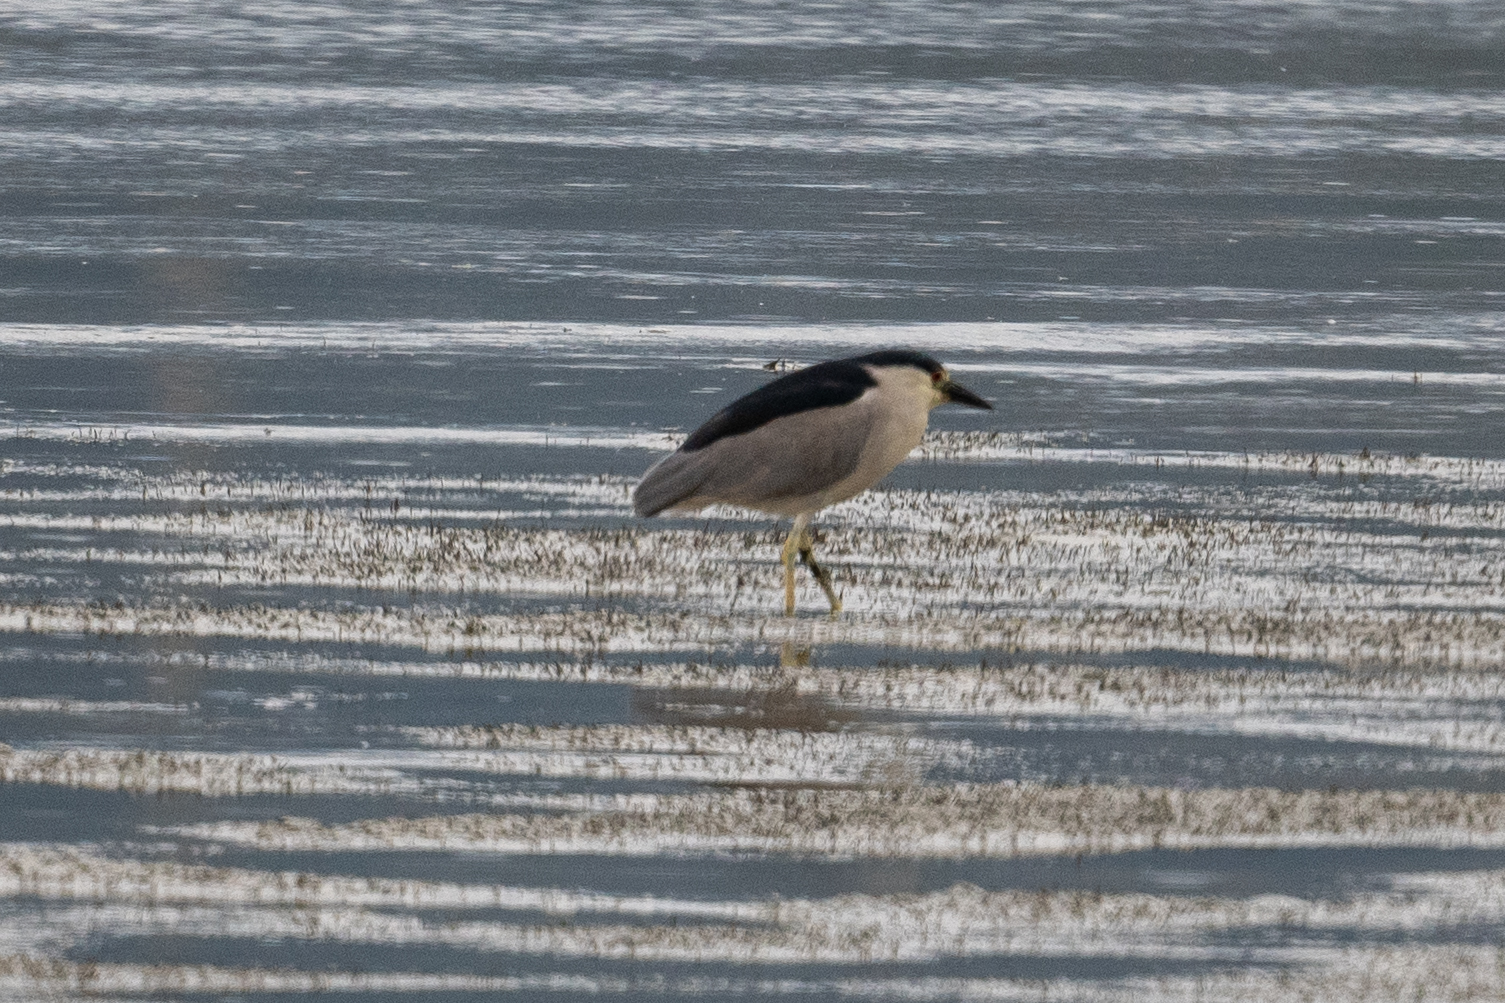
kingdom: Animalia
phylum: Chordata
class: Aves
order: Pelecaniformes
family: Ardeidae
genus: Nycticorax
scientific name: Nycticorax nycticorax
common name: Black-crowned night heron
